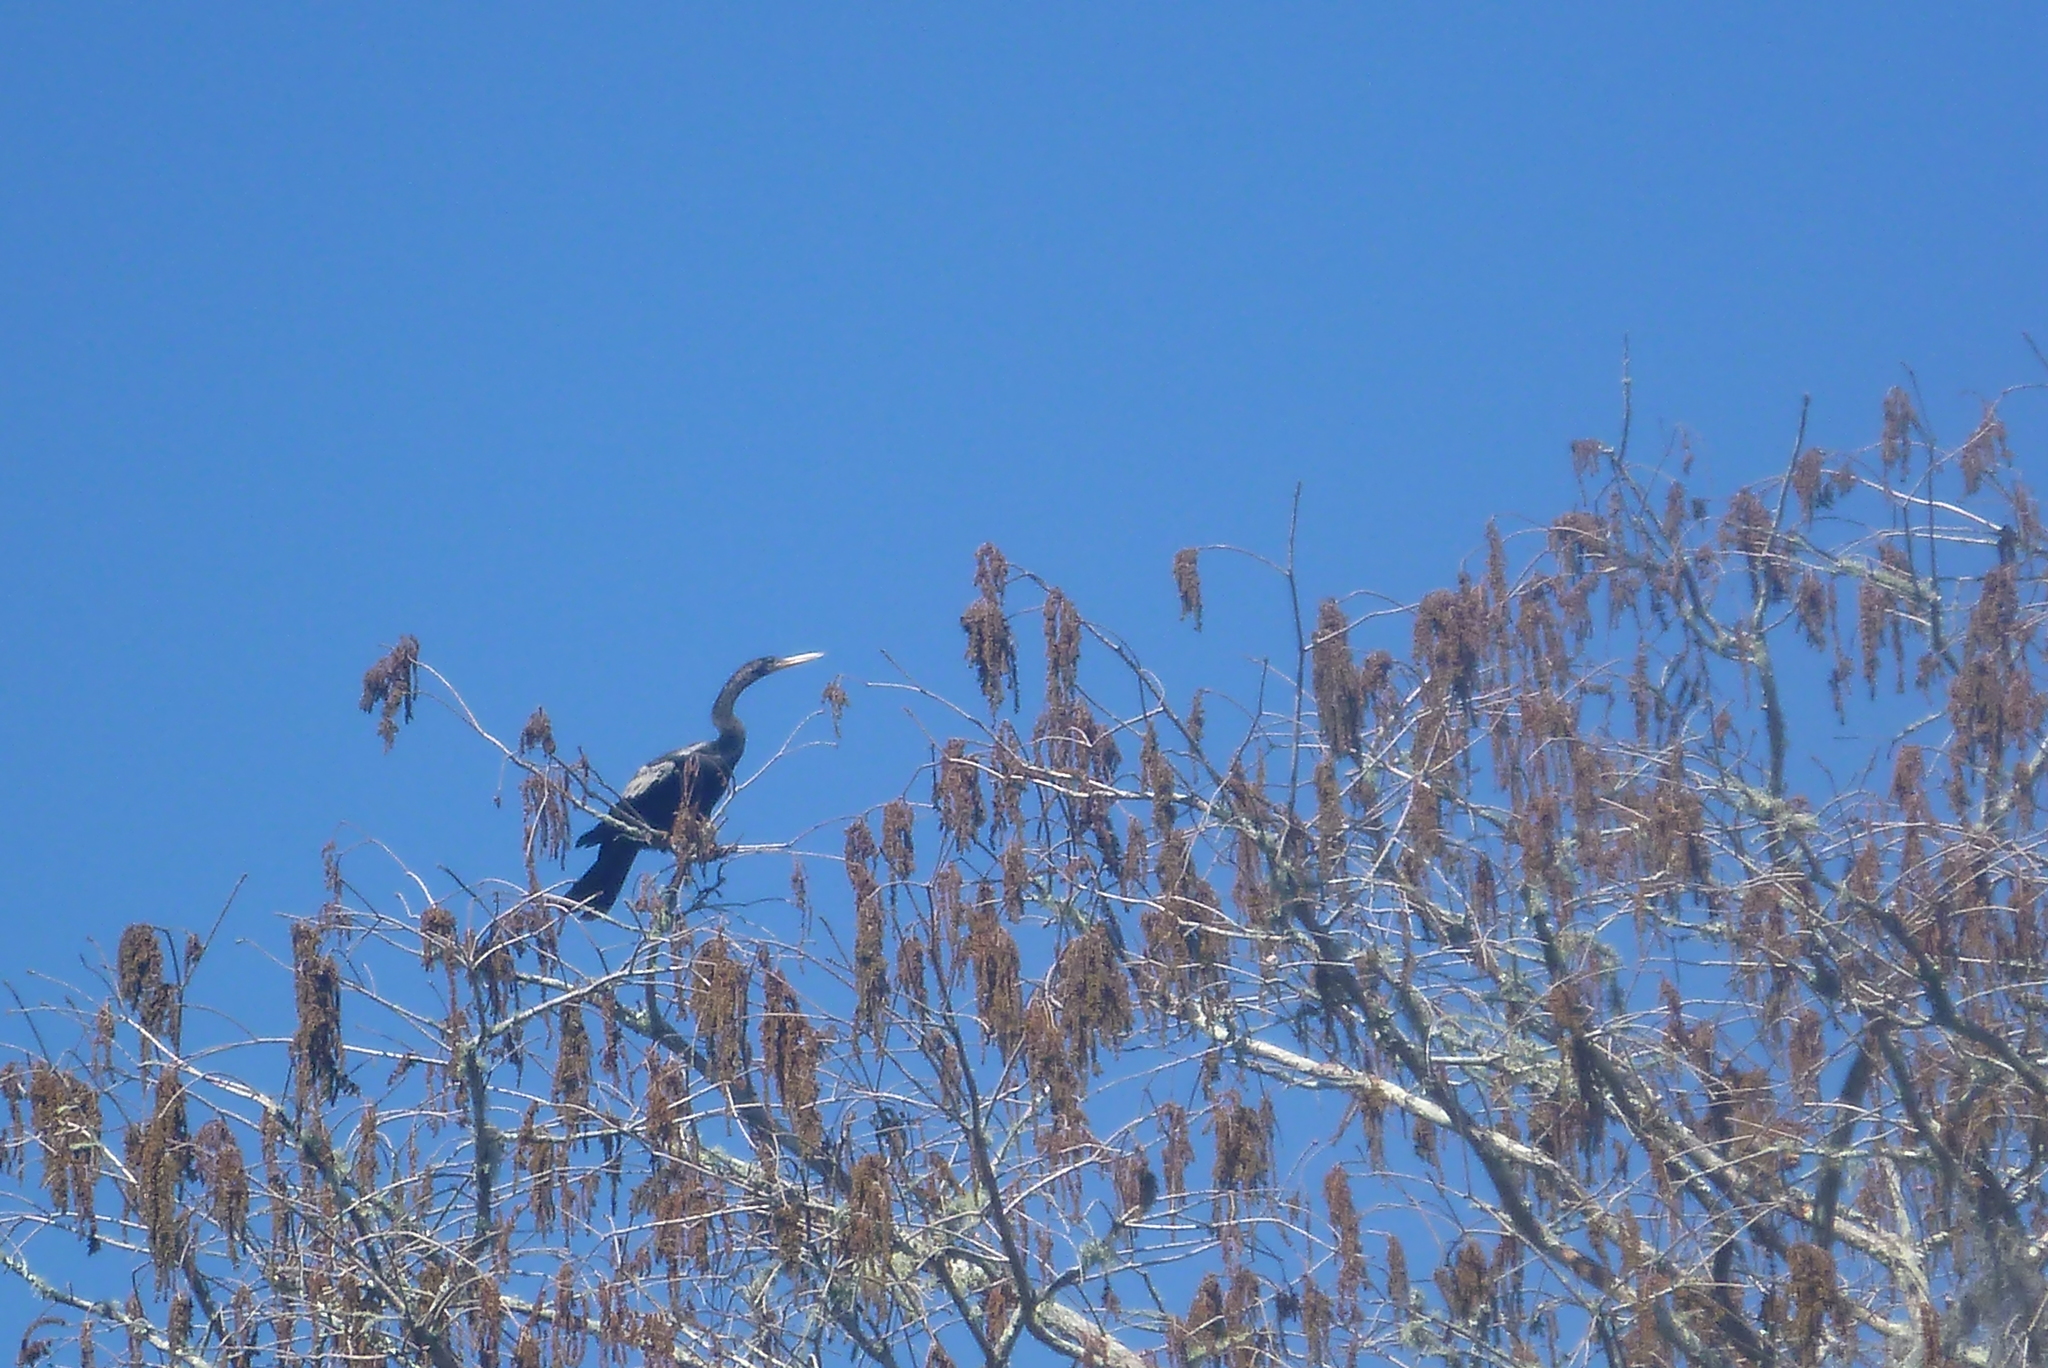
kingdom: Animalia
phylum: Chordata
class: Aves
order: Suliformes
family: Anhingidae
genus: Anhinga
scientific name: Anhinga anhinga
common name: Anhinga
